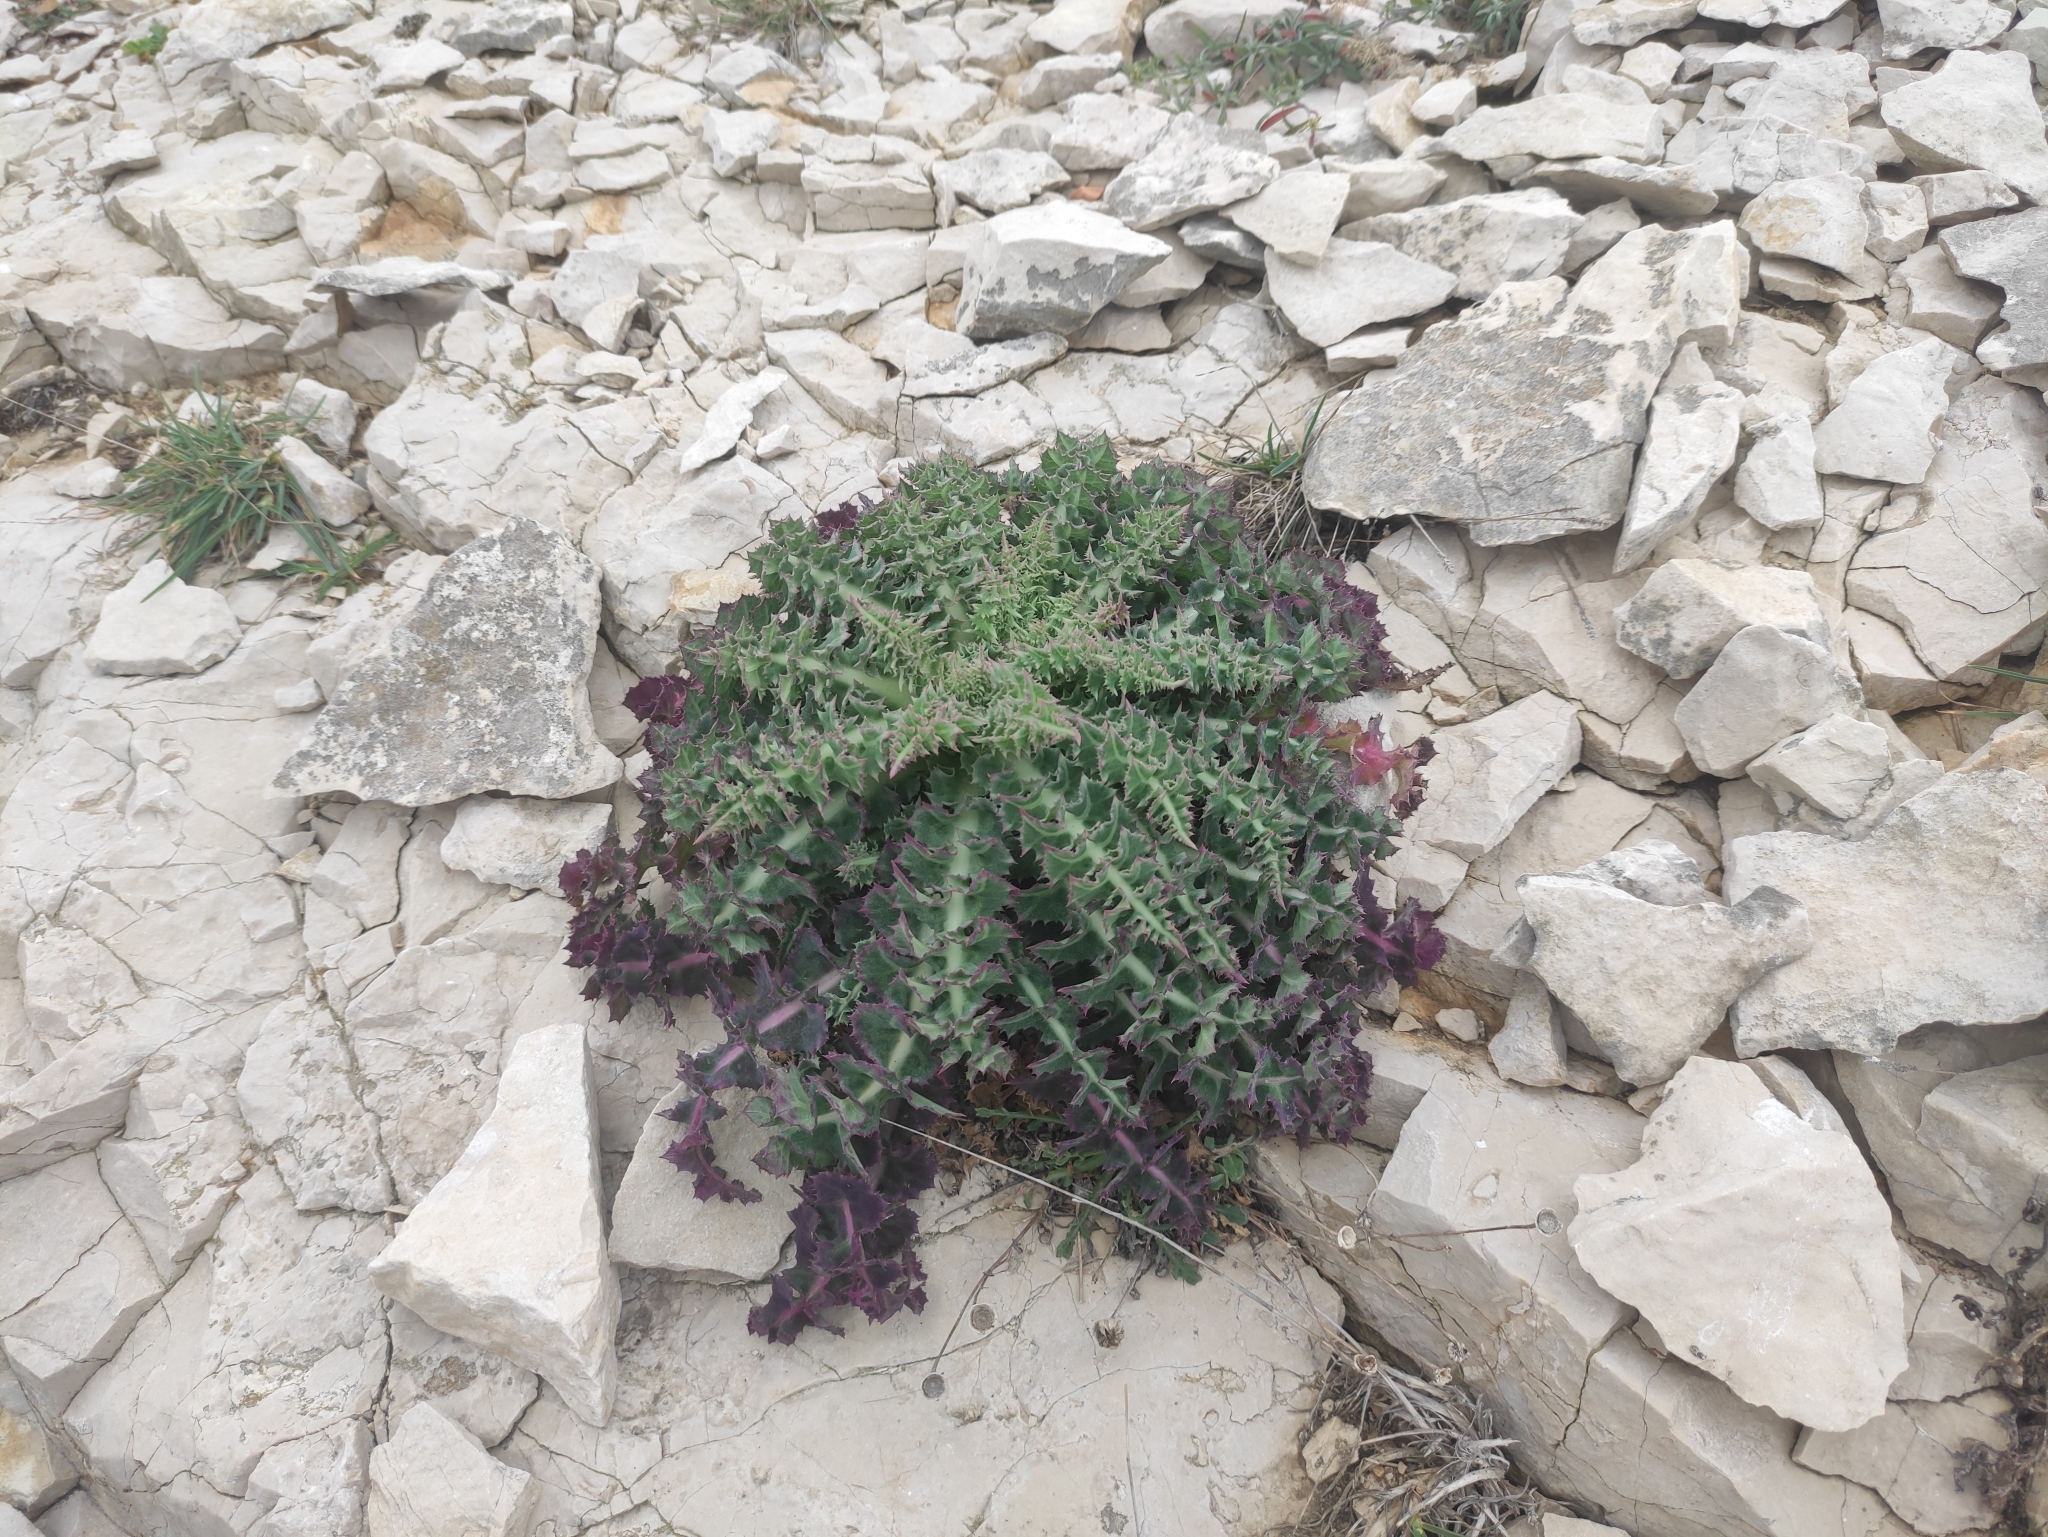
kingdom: Plantae
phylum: Tracheophyta
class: Magnoliopsida
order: Asterales
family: Asteraceae
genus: Sonchus
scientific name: Sonchus asper
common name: Prickly sow-thistle
